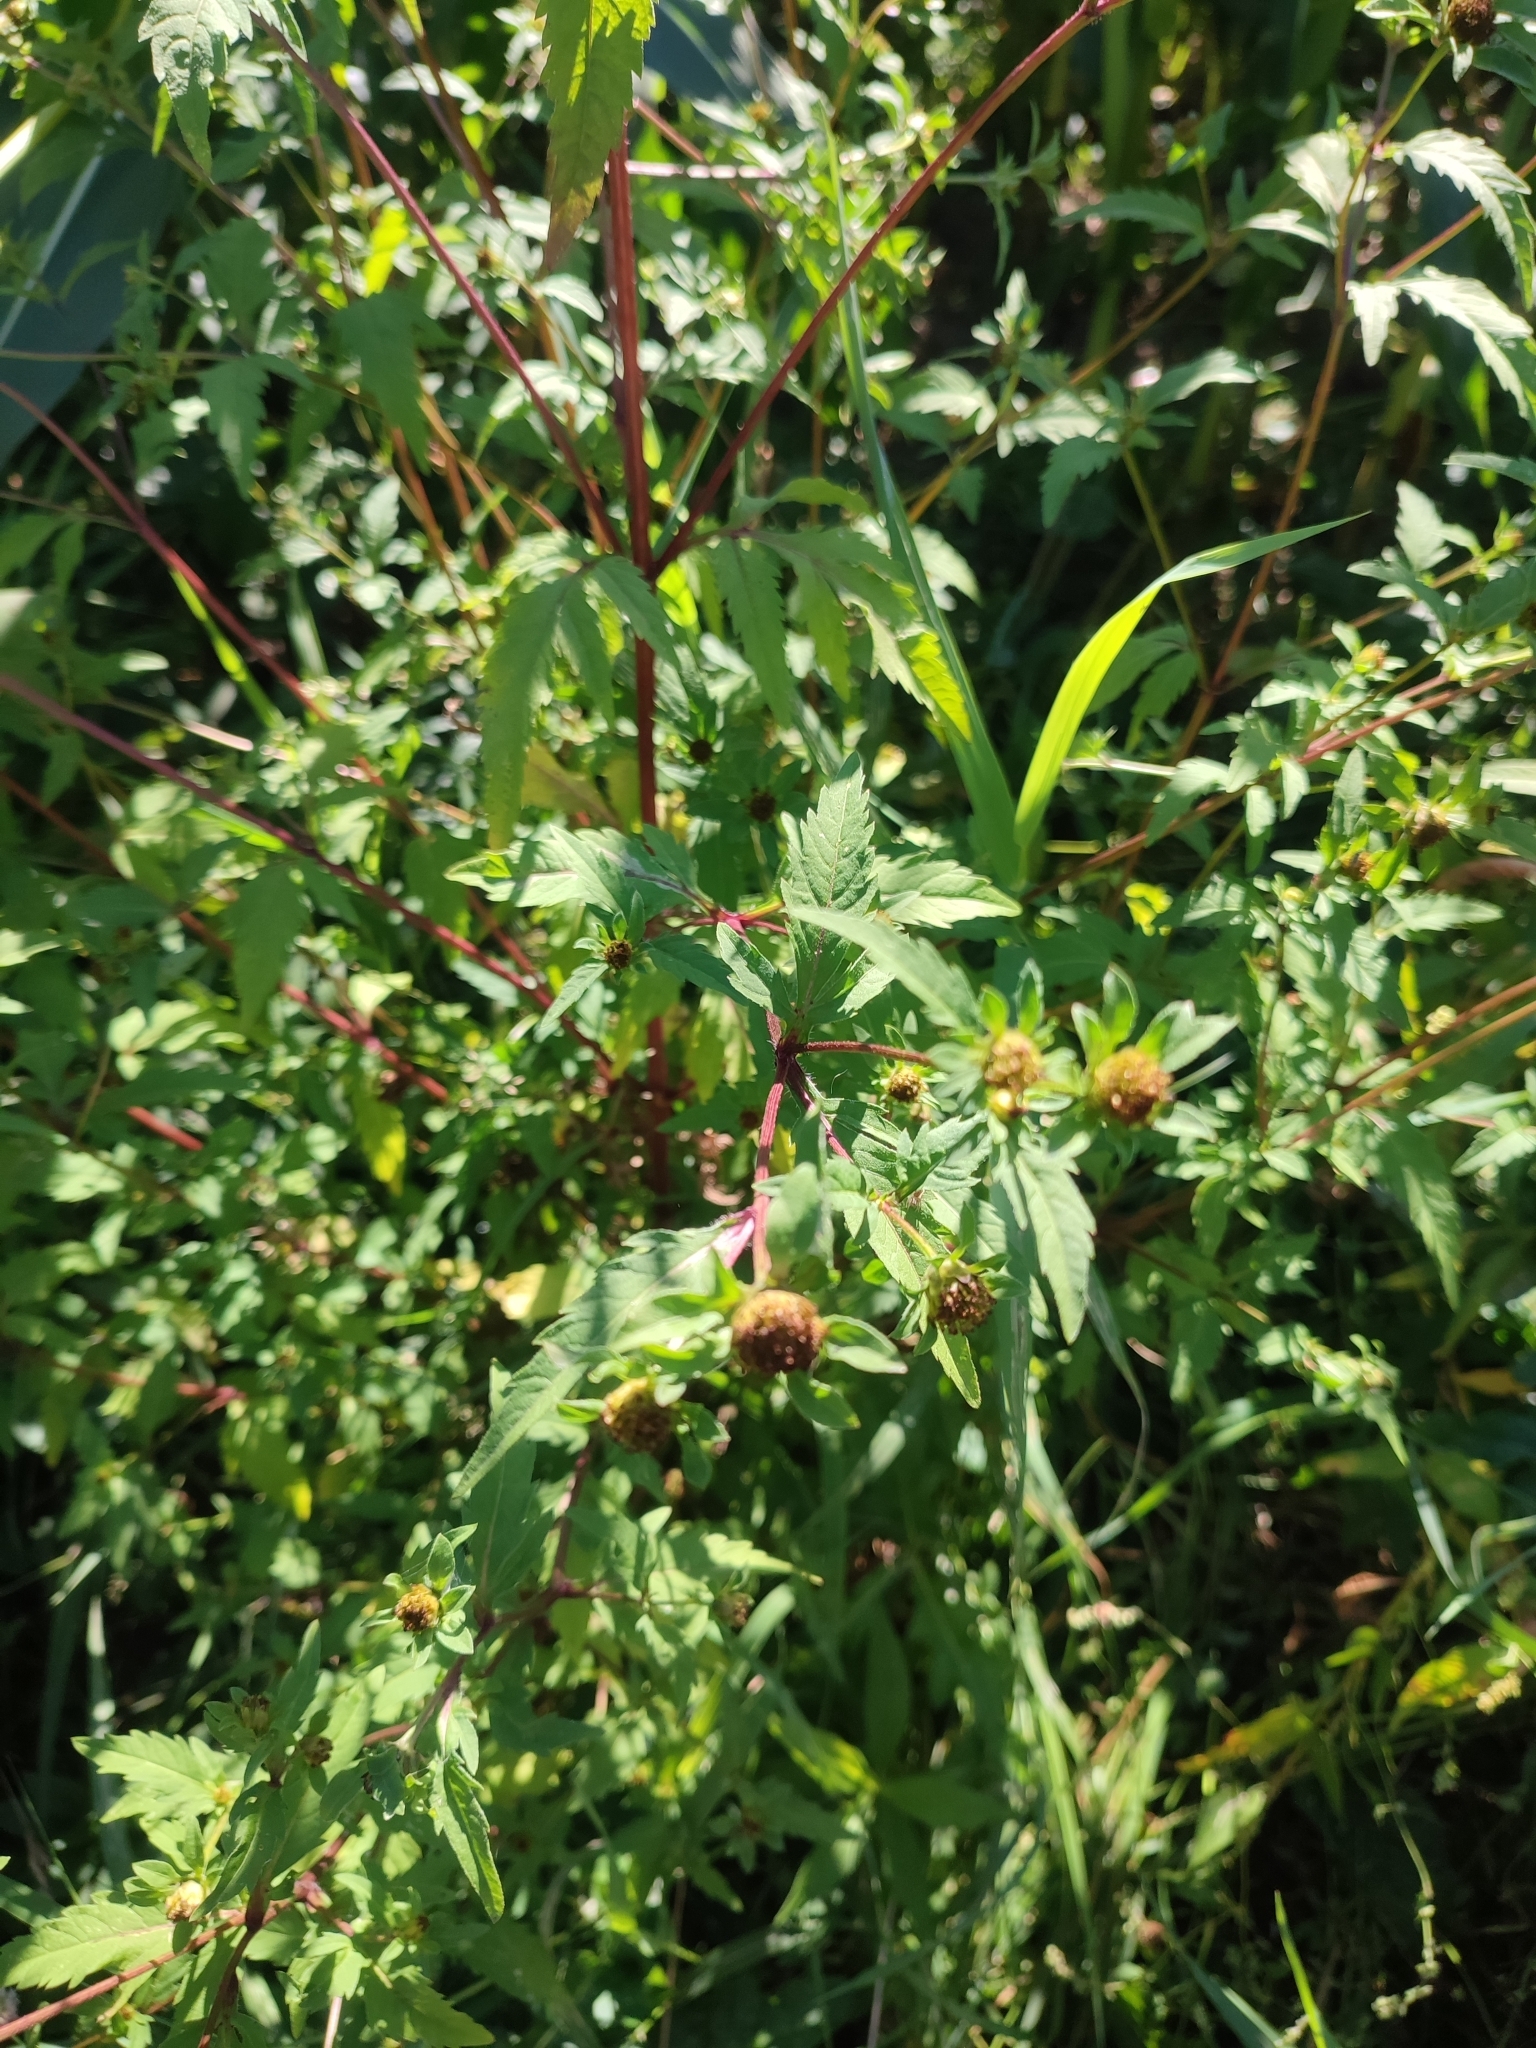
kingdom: Plantae
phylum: Tracheophyta
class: Magnoliopsida
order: Asterales
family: Asteraceae
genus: Bidens
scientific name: Bidens tripartita
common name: Trifid bur-marigold
